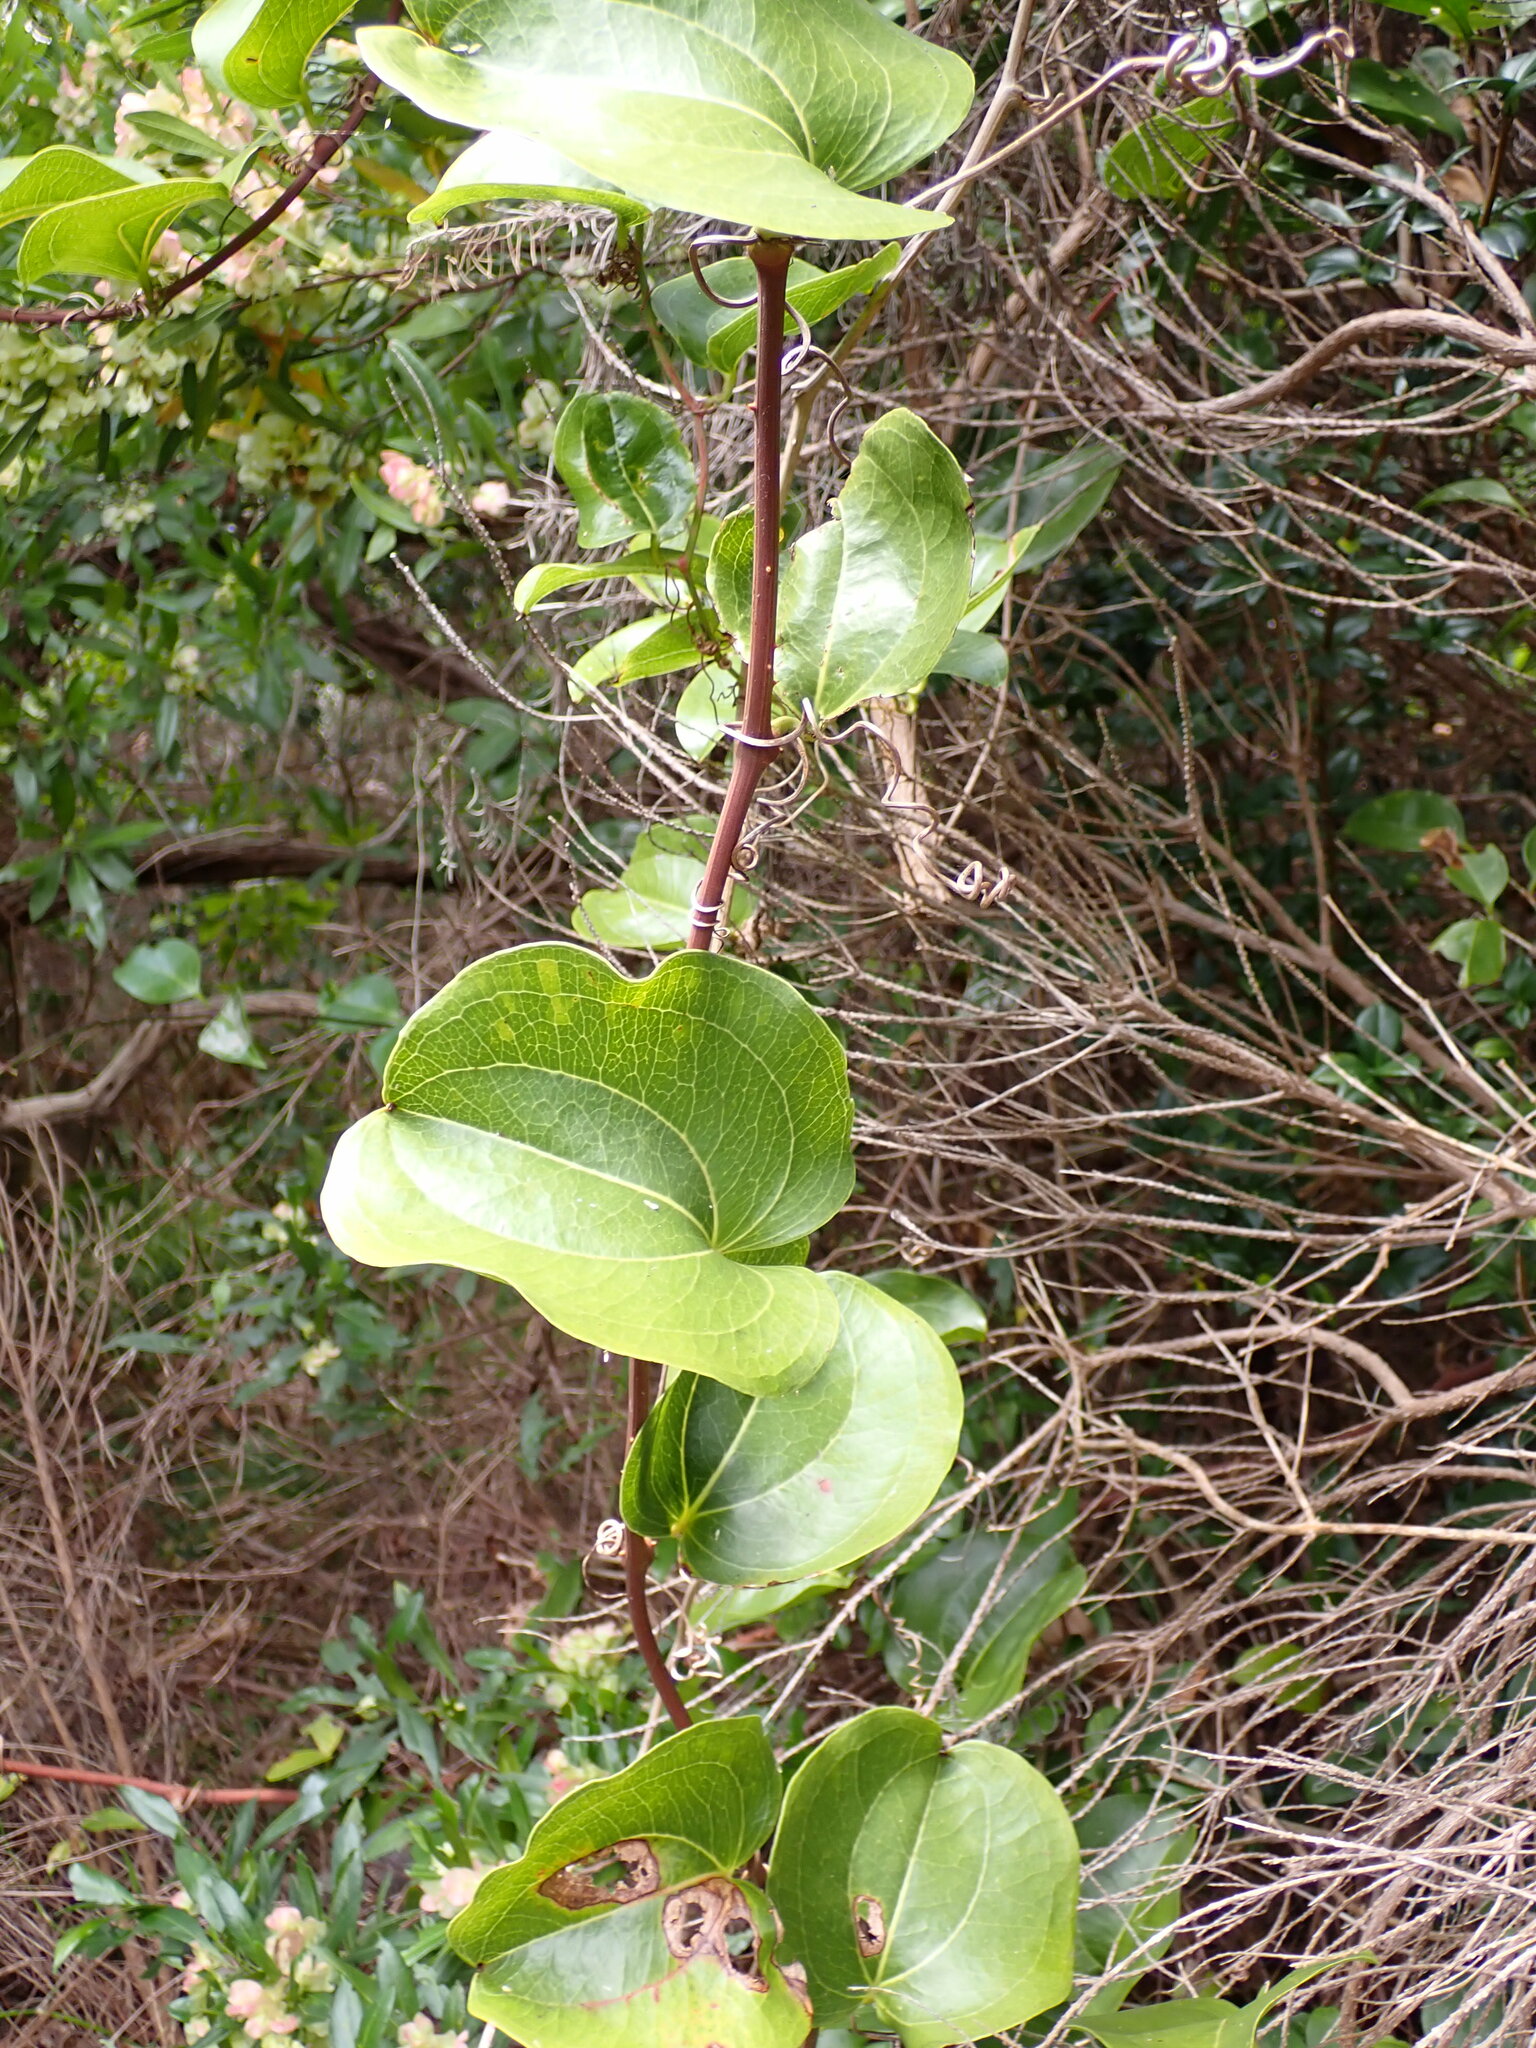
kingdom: Plantae
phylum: Tracheophyta
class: Liliopsida
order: Liliales
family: Smilacaceae
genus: Smilax
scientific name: Smilax australis
